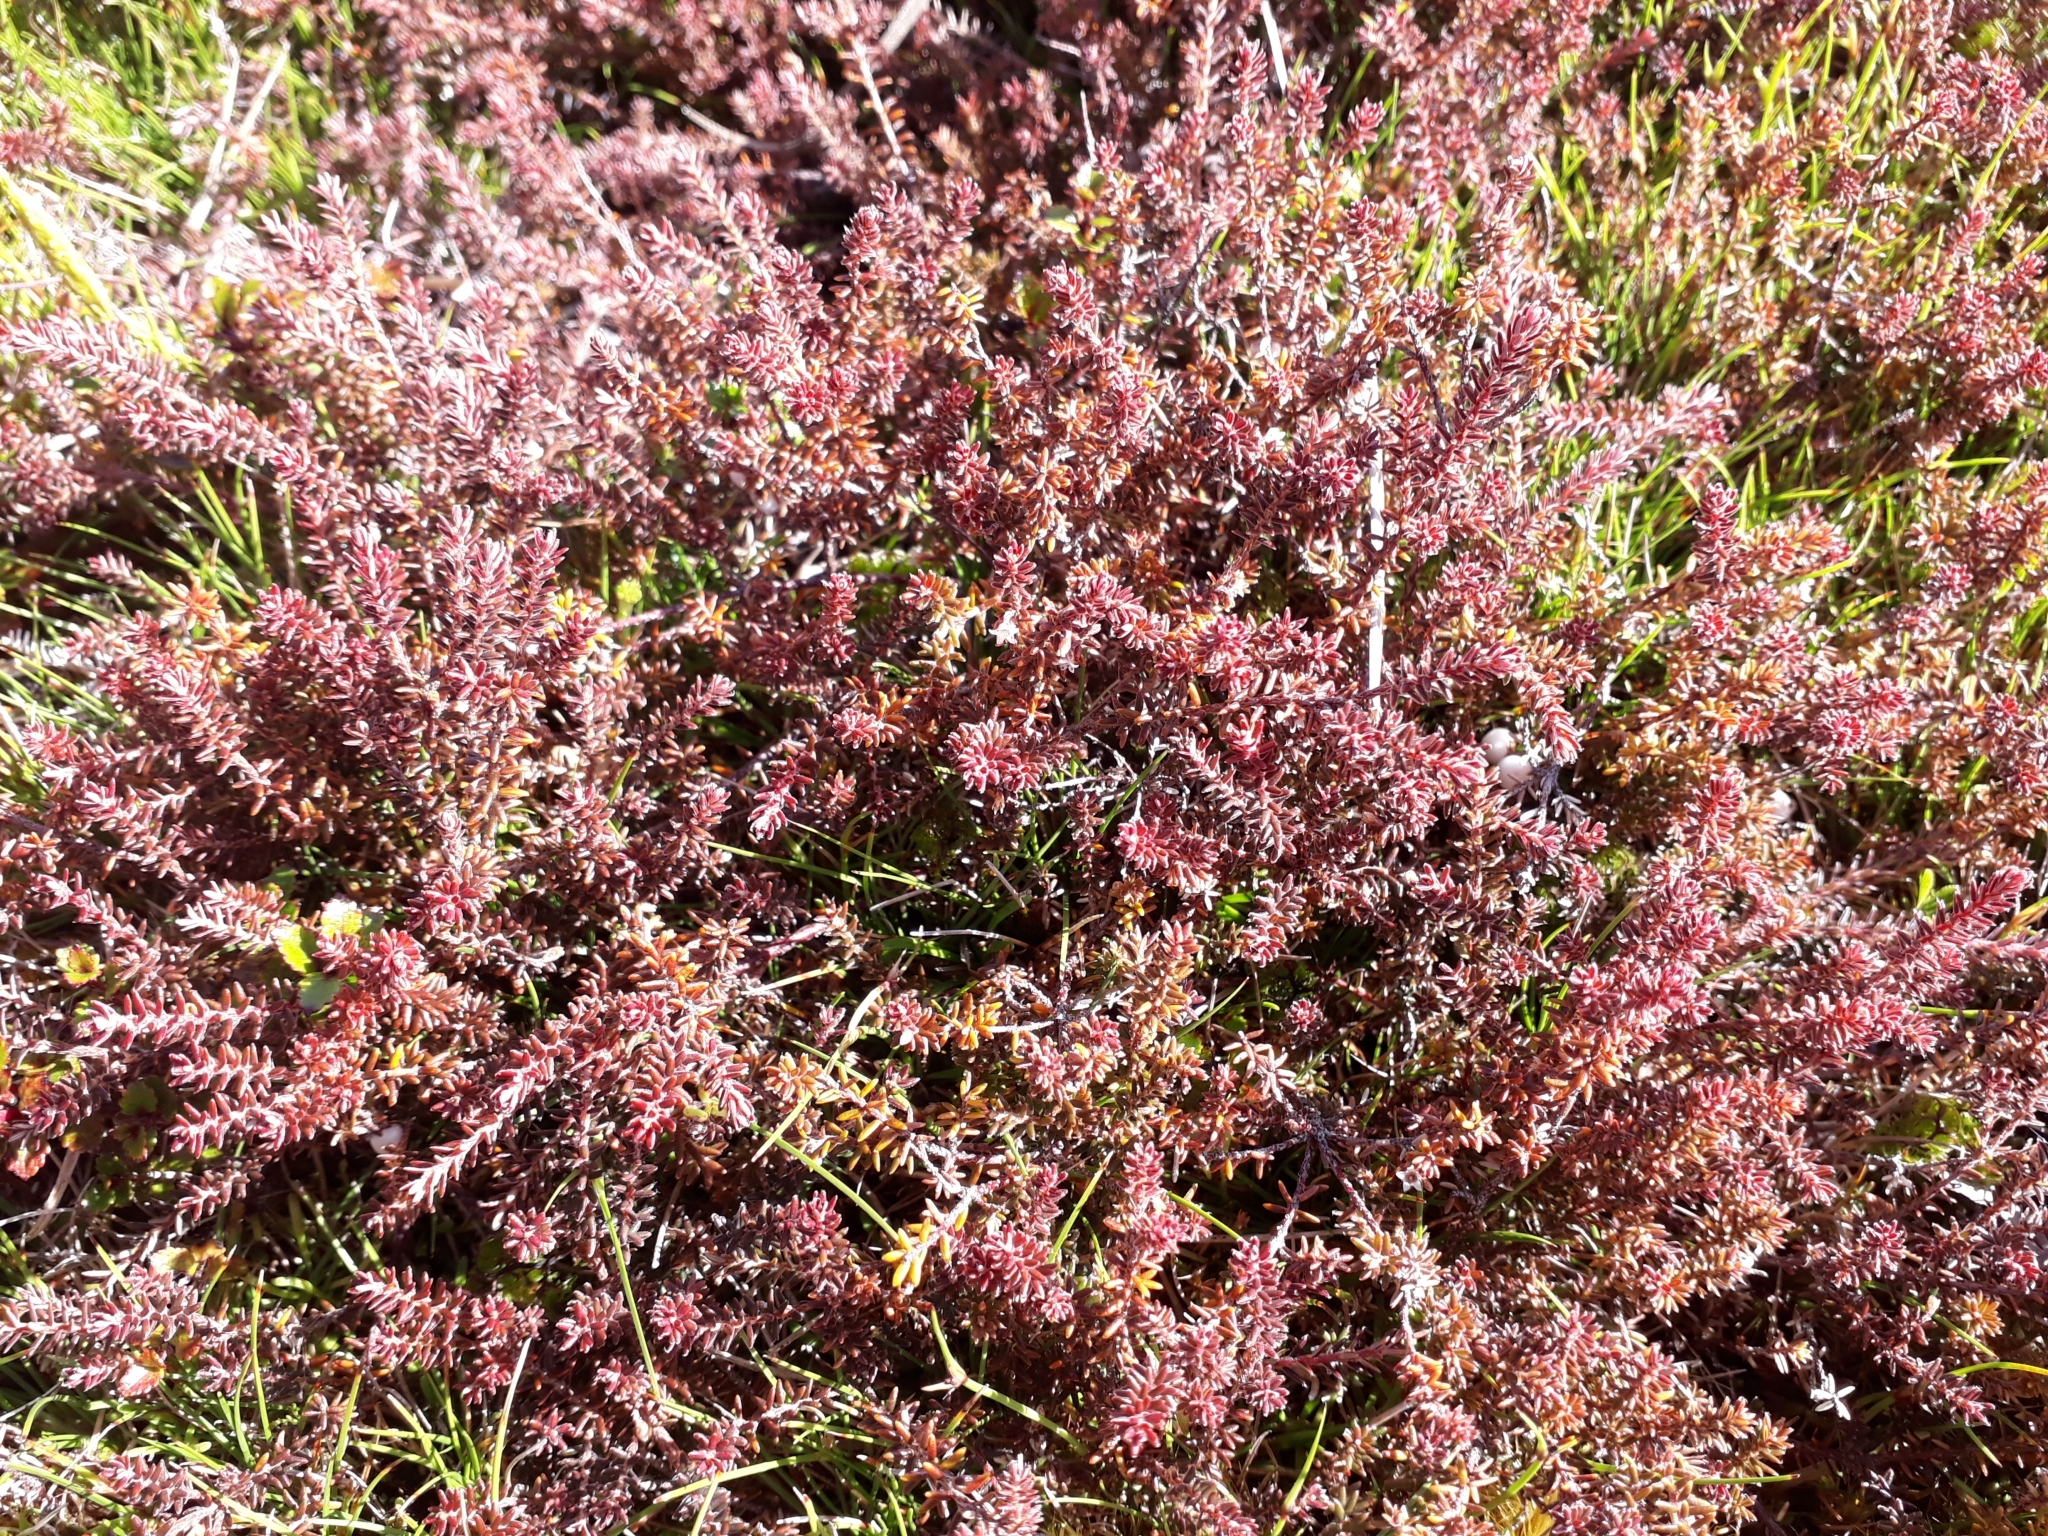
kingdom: Plantae
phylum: Tracheophyta
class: Magnoliopsida
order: Ericales
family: Ericaceae
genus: Androstoma
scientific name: Androstoma empetrifolia
